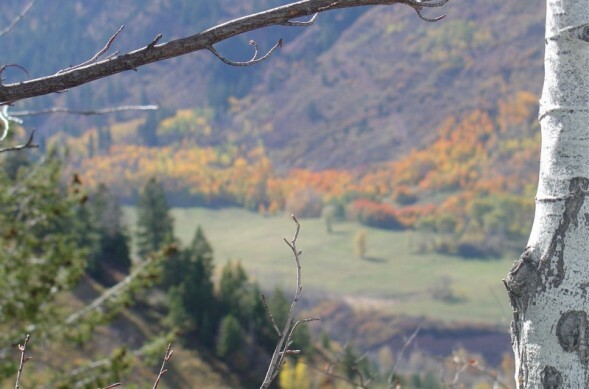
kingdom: Plantae
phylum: Tracheophyta
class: Magnoliopsida
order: Malpighiales
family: Salicaceae
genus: Populus
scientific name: Populus tremuloides
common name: Quaking aspen
